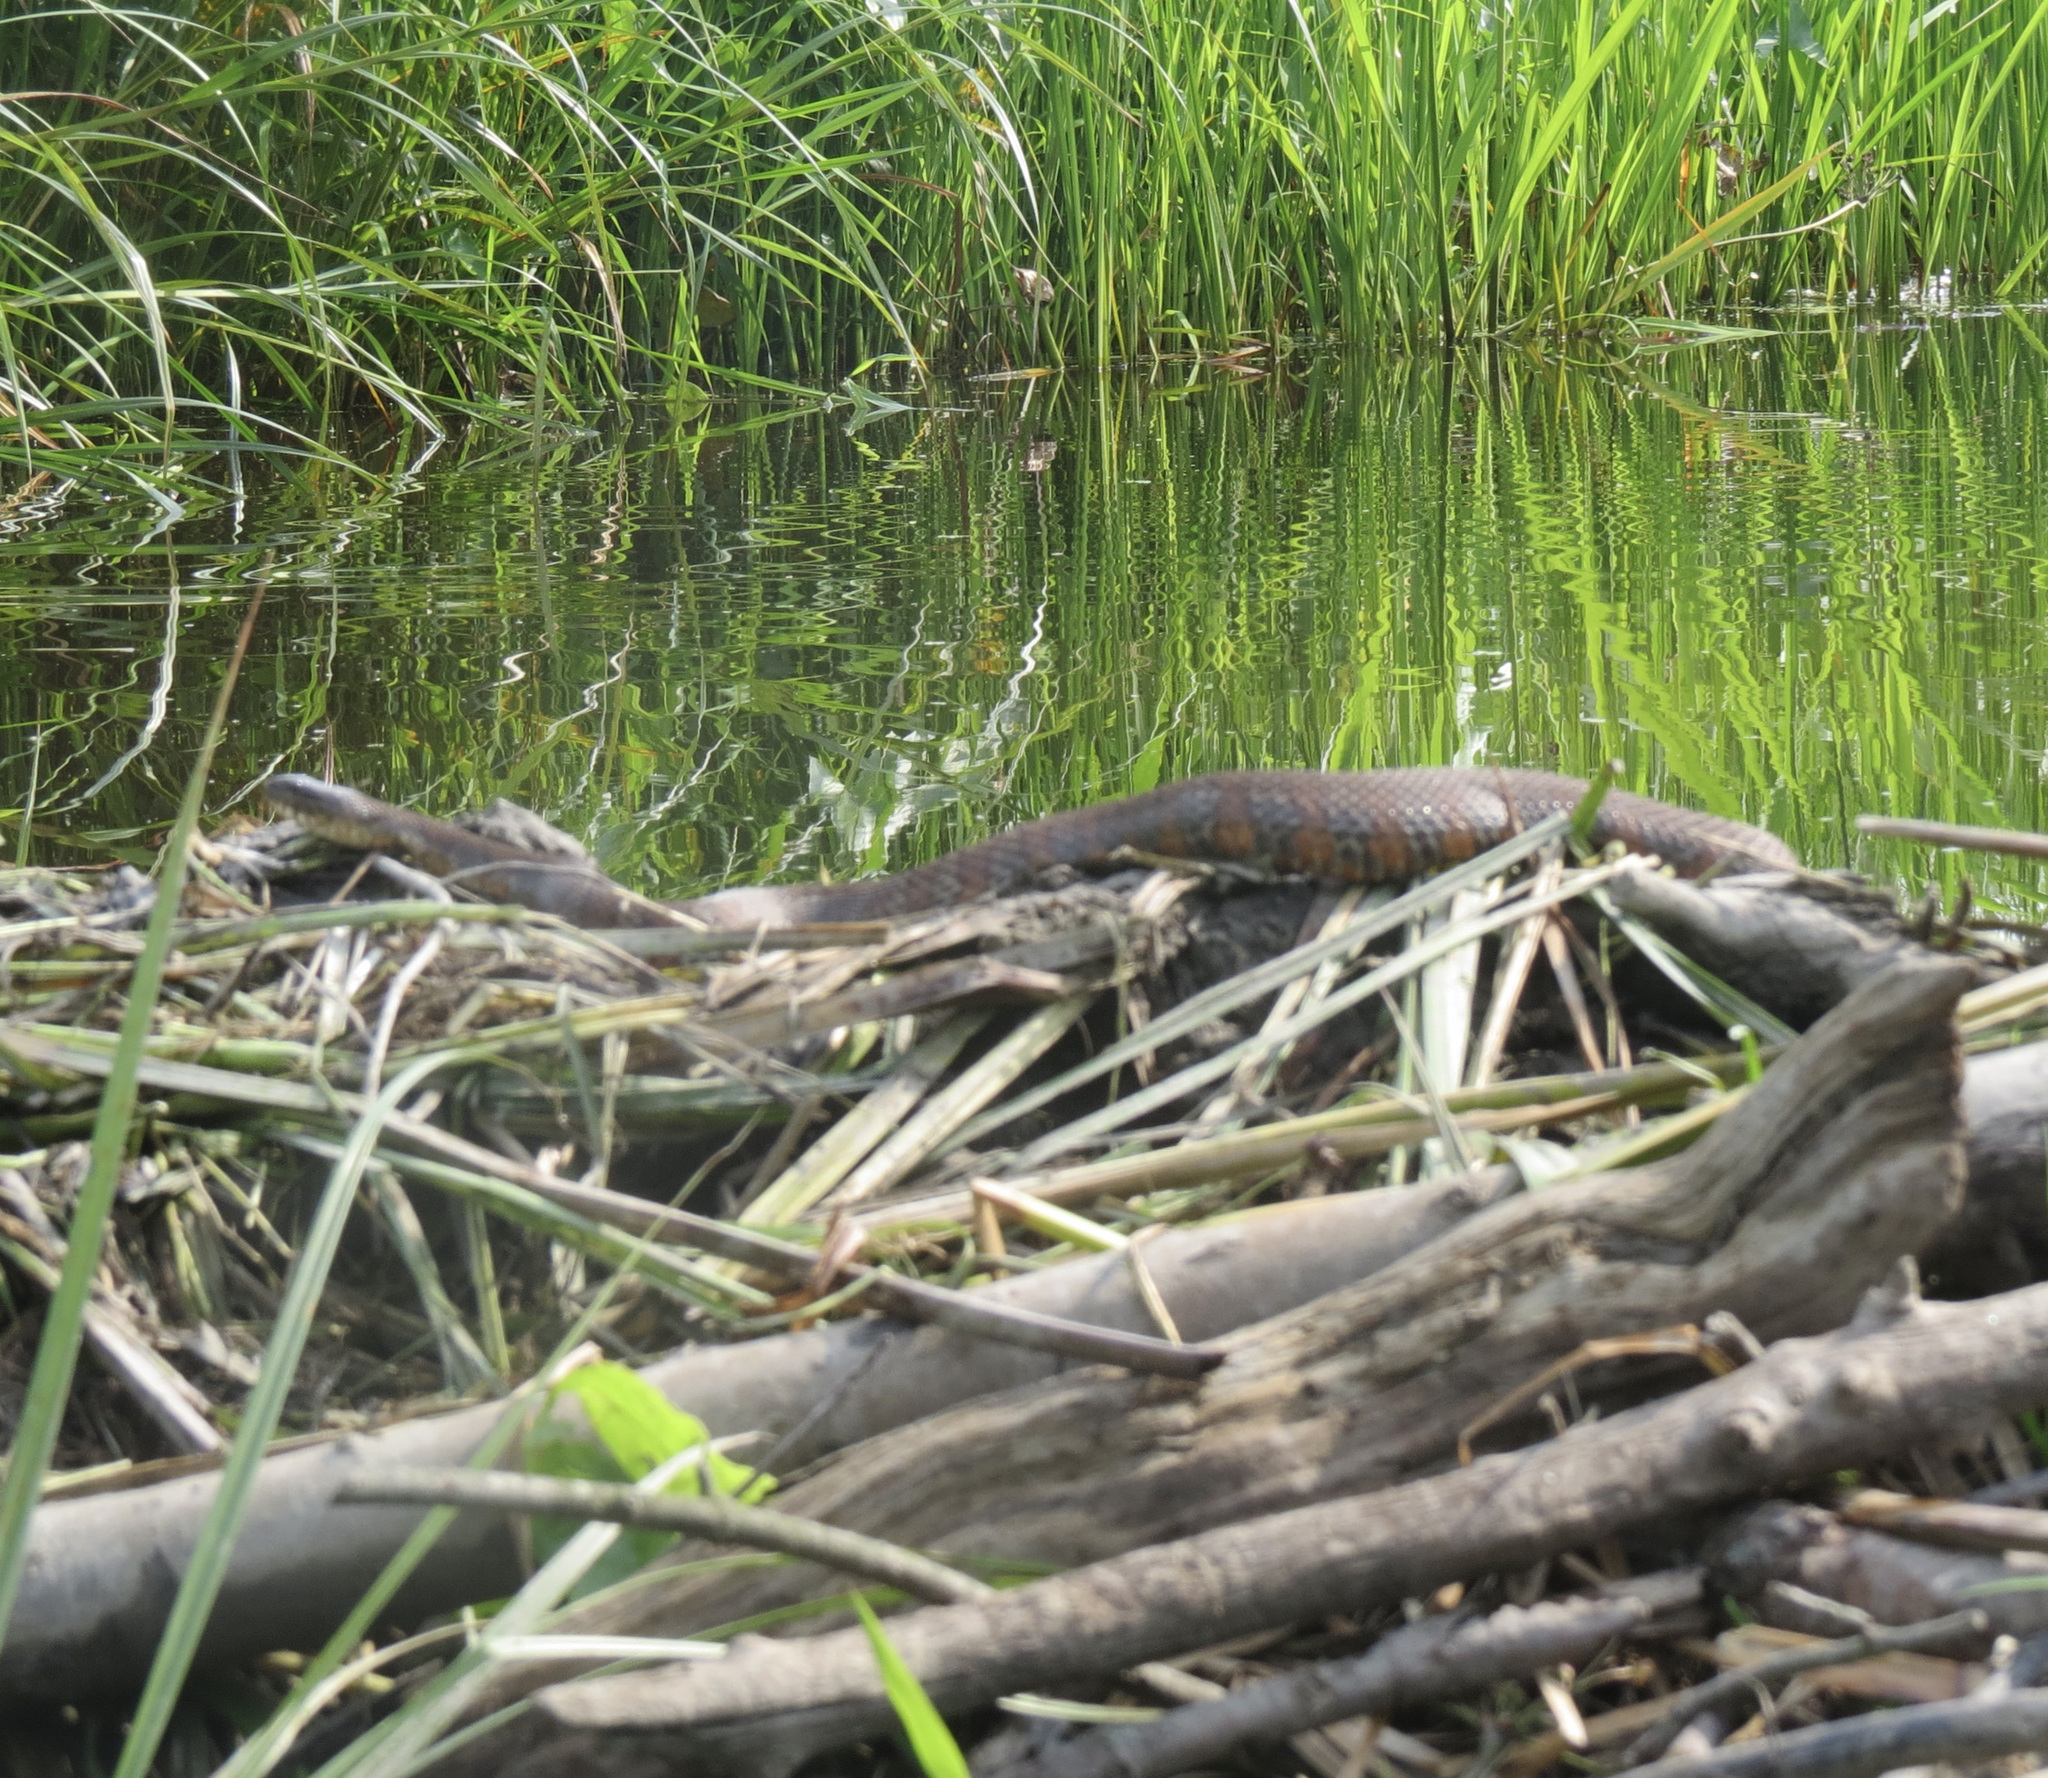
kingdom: Animalia
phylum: Chordata
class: Squamata
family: Colubridae
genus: Nerodia
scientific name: Nerodia sipedon
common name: Northern water snake
